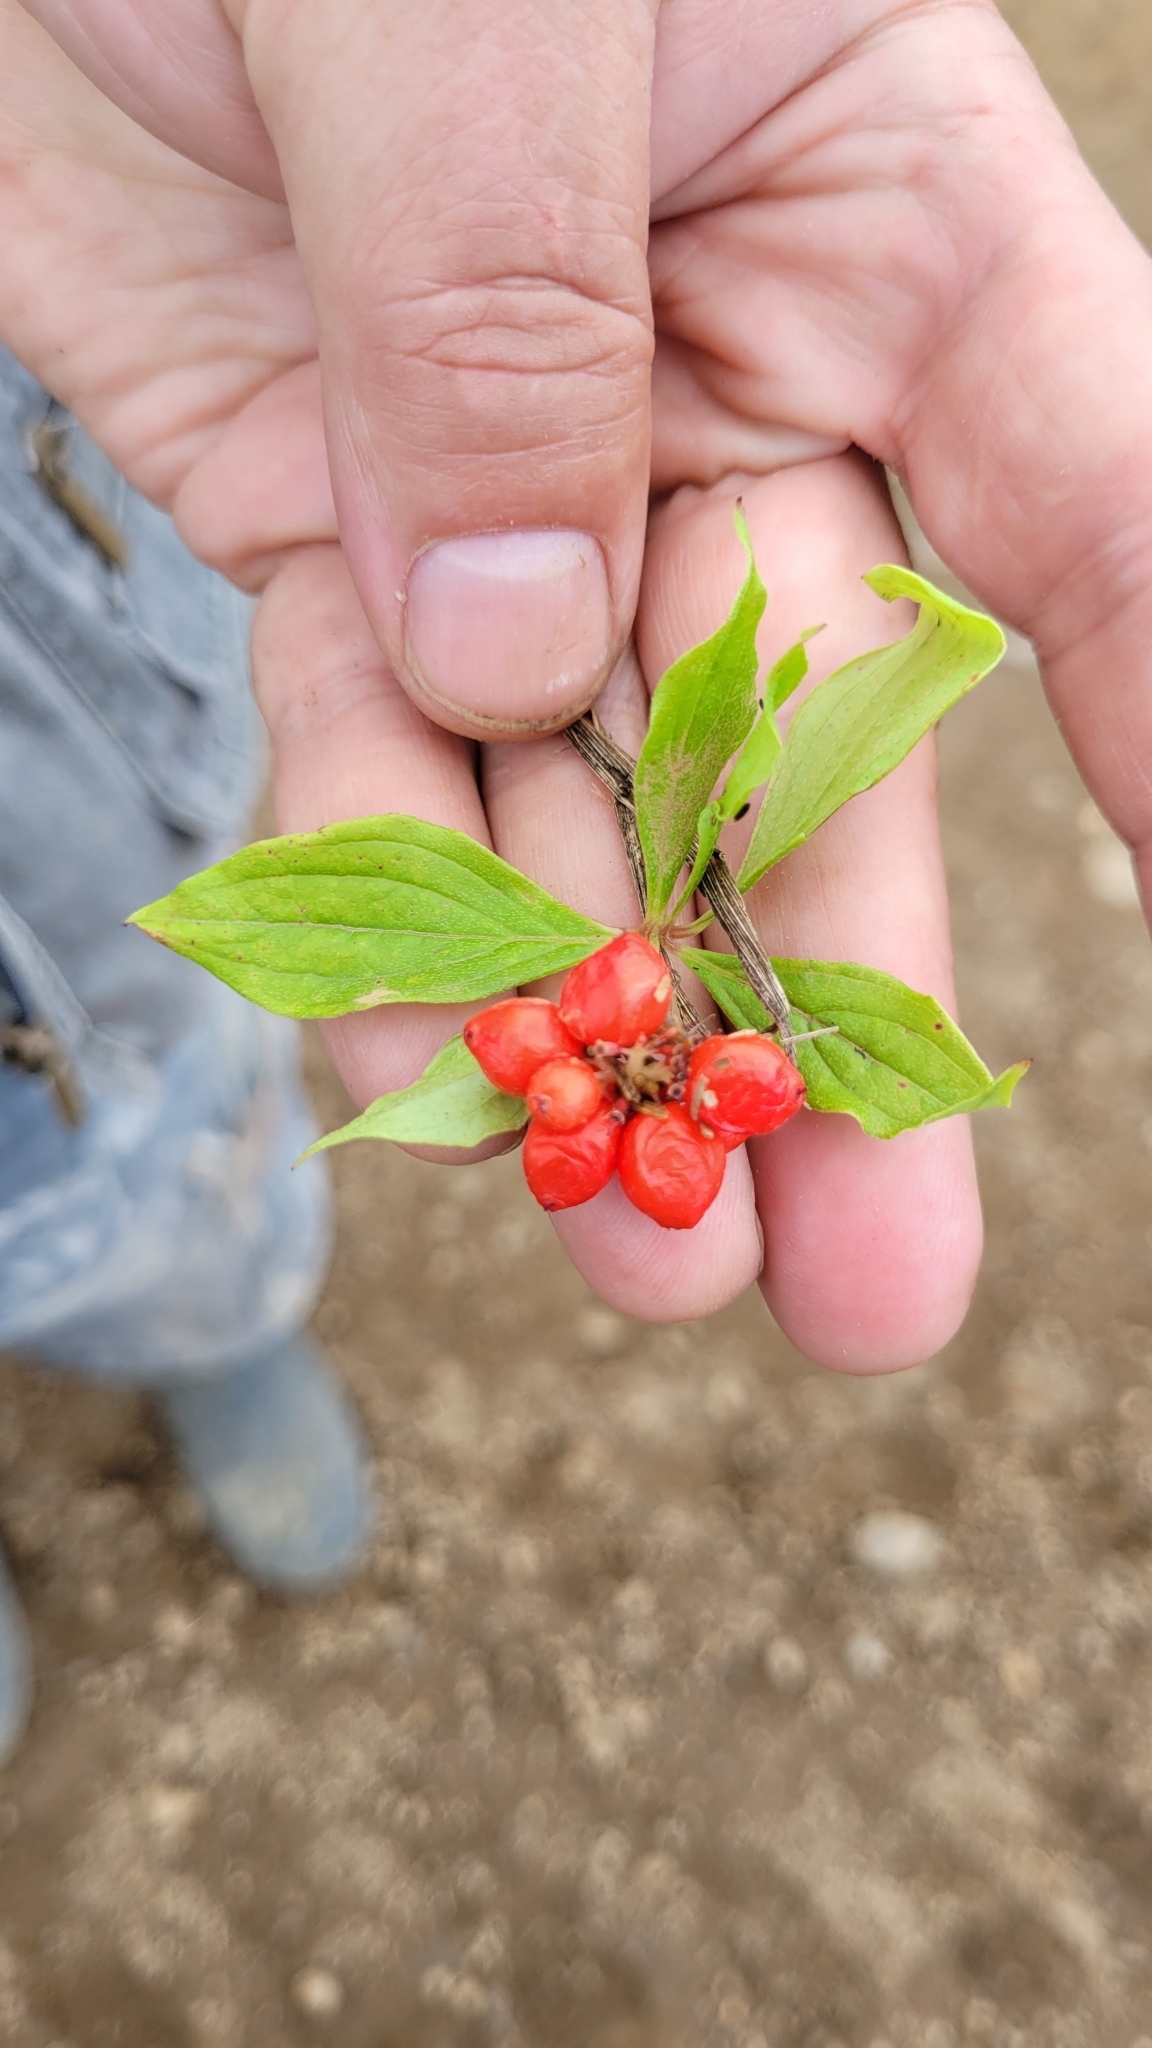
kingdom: Plantae
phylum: Tracheophyta
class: Magnoliopsida
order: Cornales
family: Cornaceae
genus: Cornus
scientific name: Cornus canadensis
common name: Creeping dogwood
